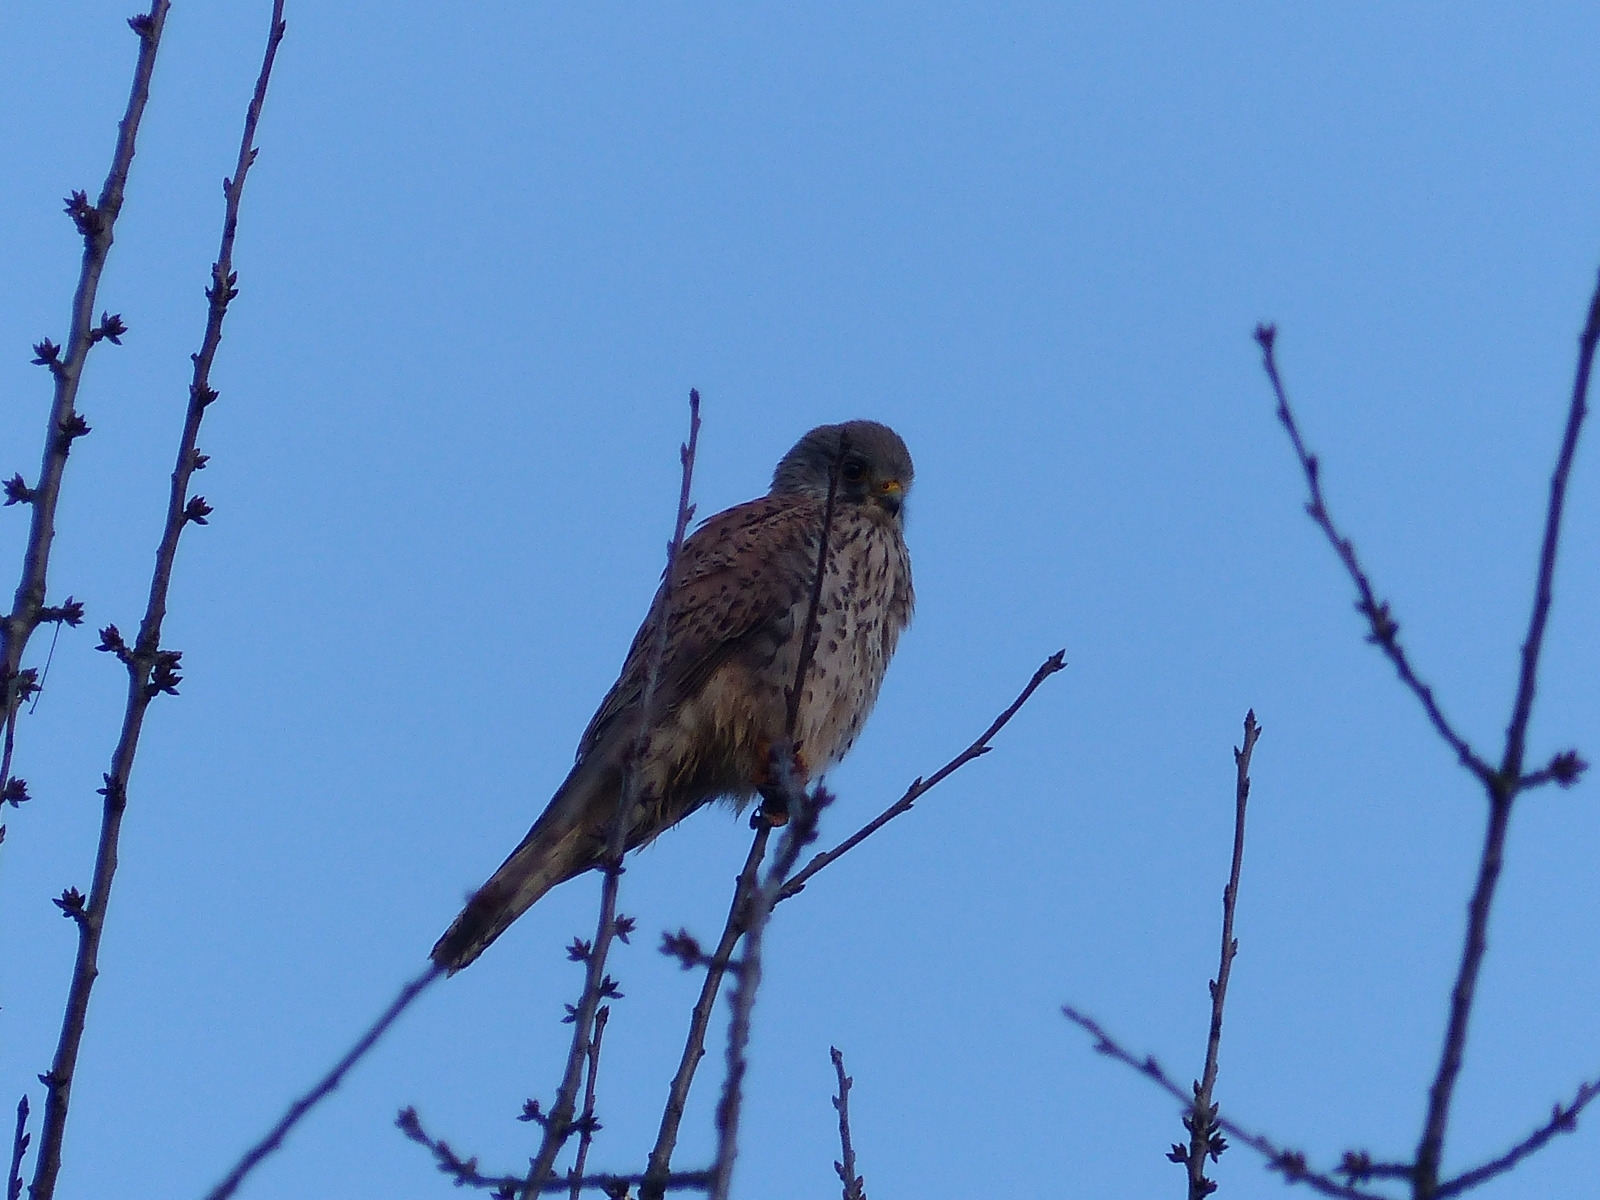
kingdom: Animalia
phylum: Chordata
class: Aves
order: Falconiformes
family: Falconidae
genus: Falco
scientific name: Falco tinnunculus
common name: Common kestrel
